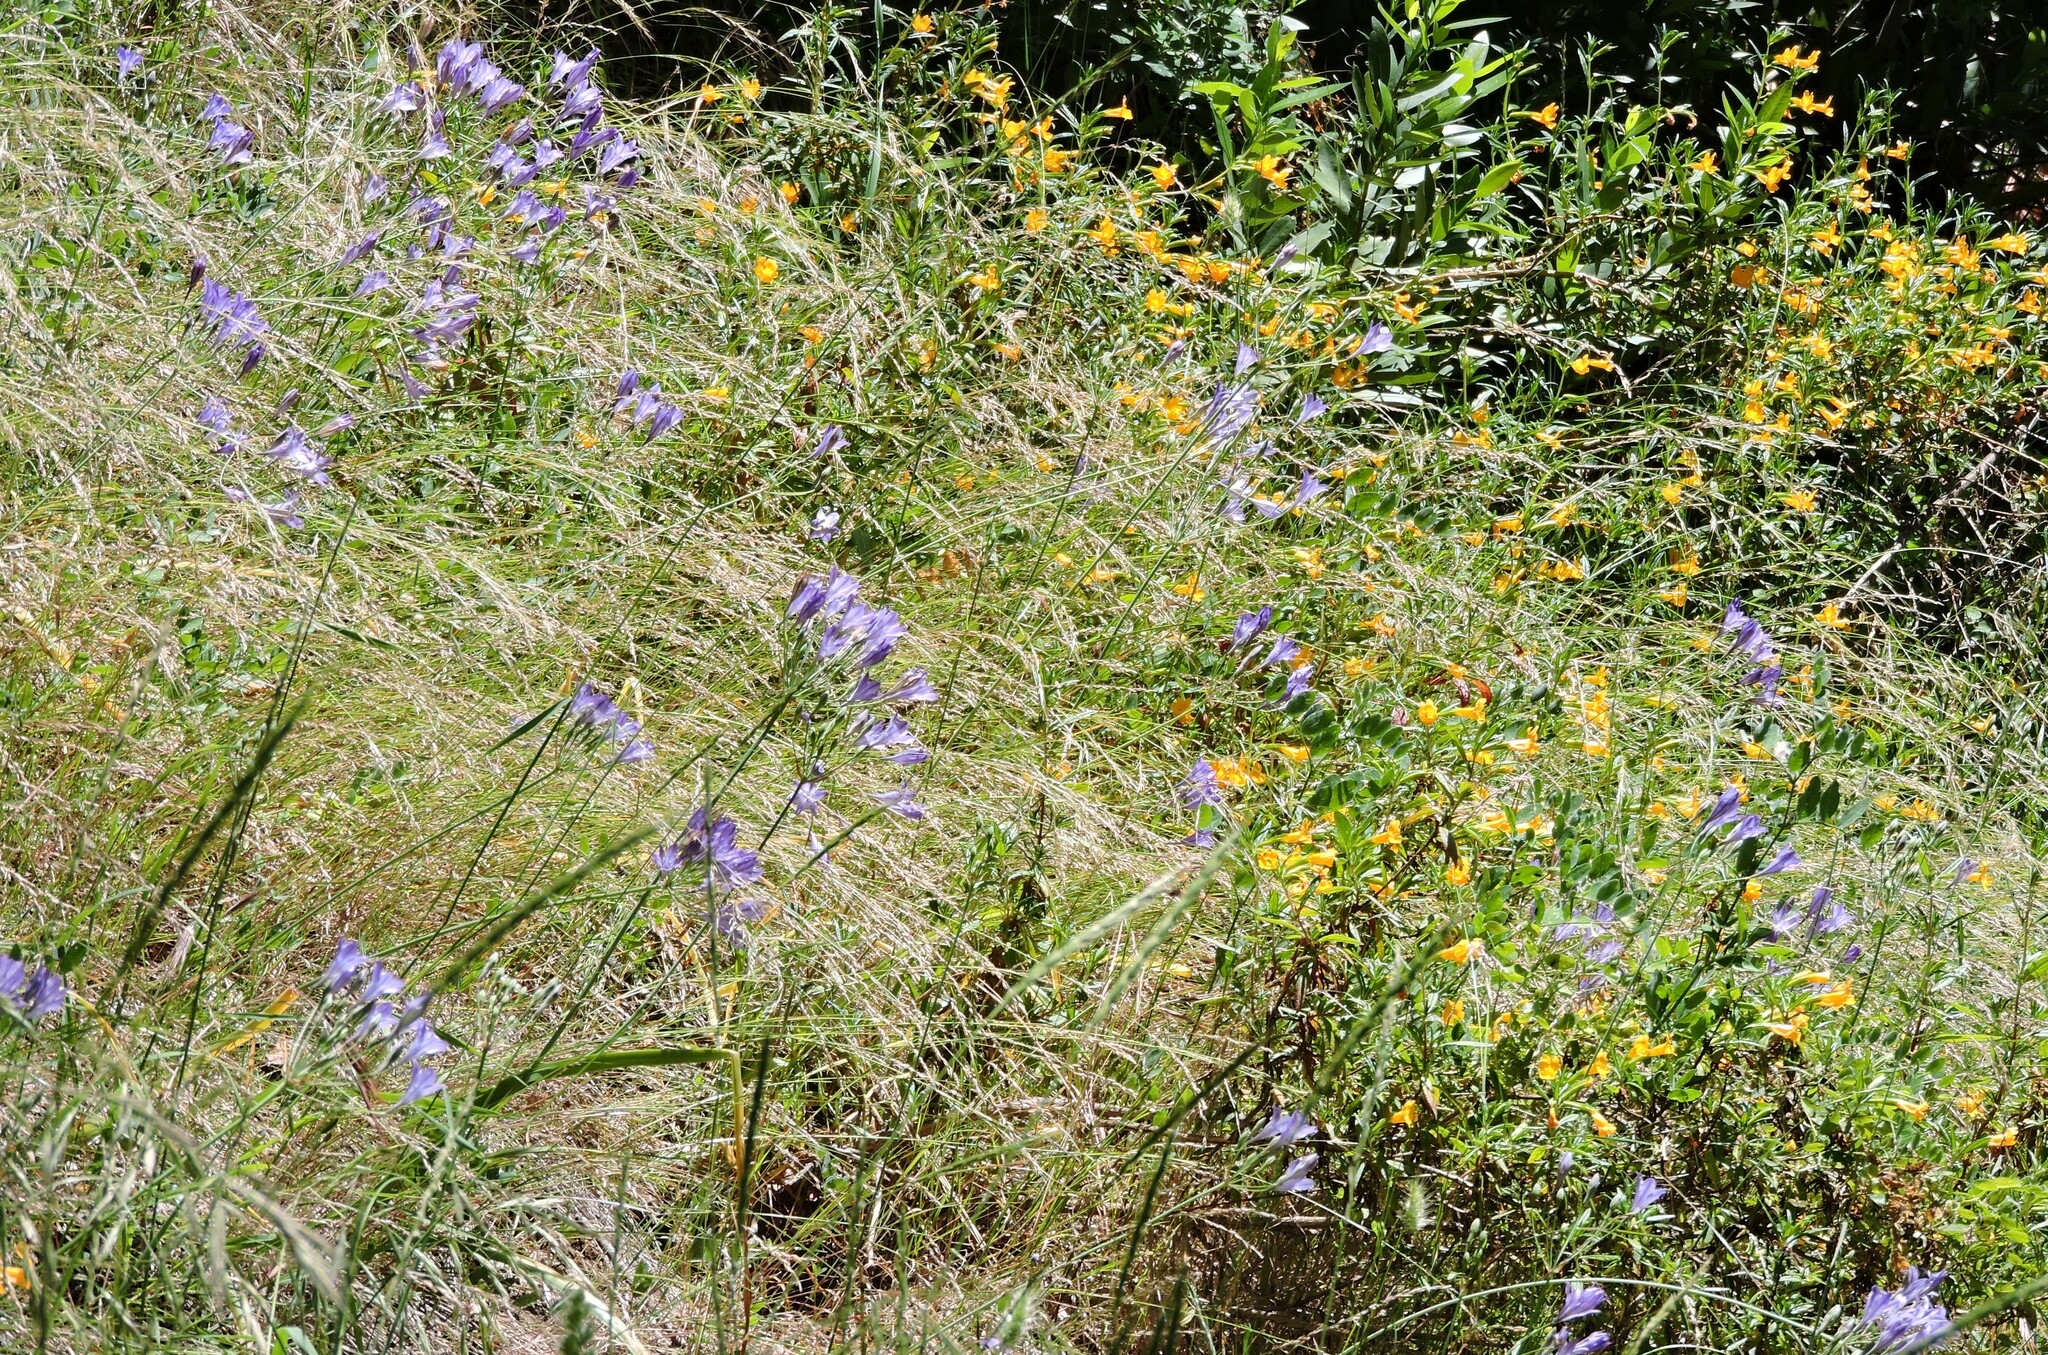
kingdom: Plantae
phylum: Tracheophyta
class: Liliopsida
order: Asparagales
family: Asparagaceae
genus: Triteleia
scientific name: Triteleia laxa
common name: Triplet-lily
